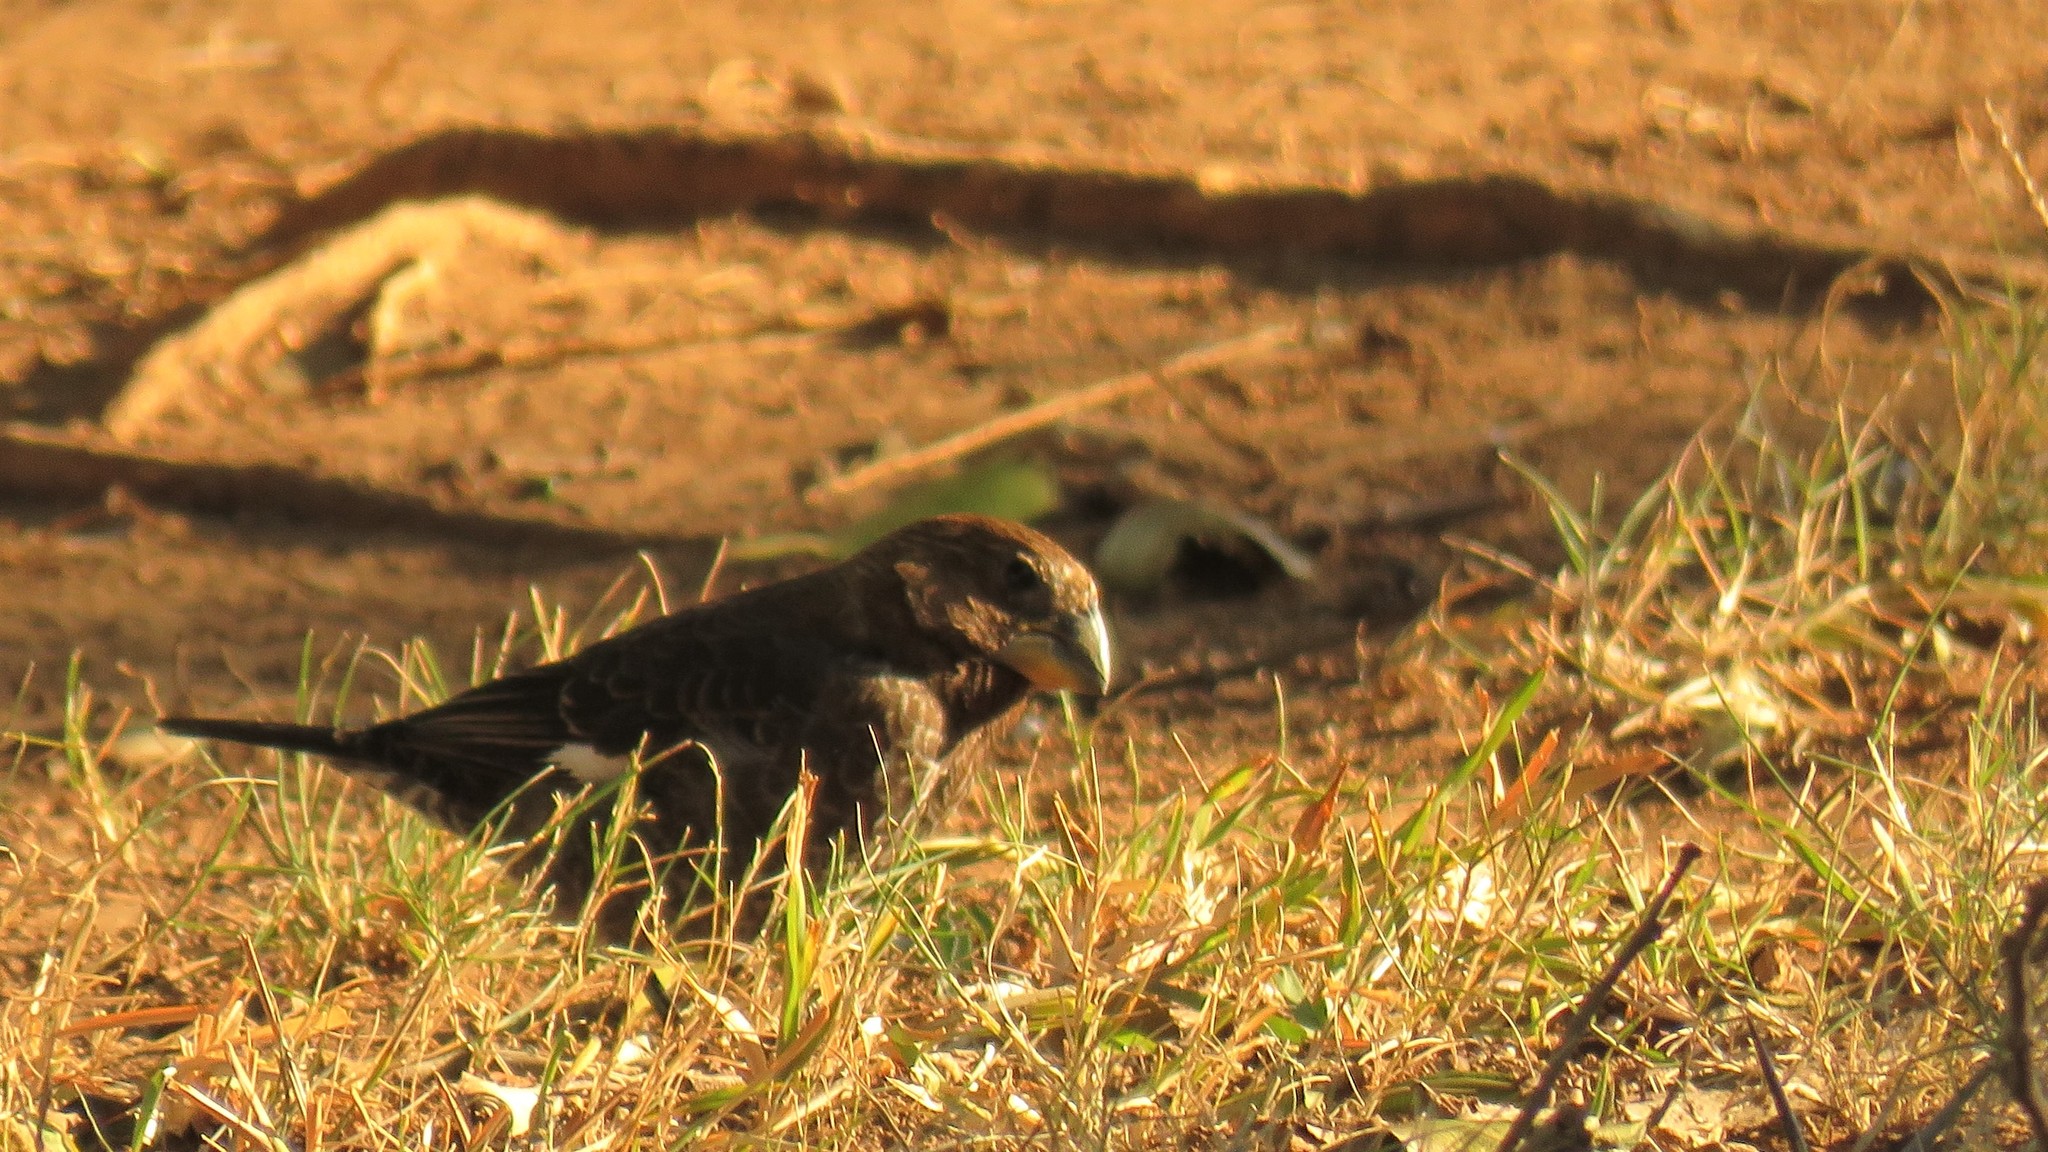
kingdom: Animalia
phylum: Chordata
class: Aves
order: Passeriformes
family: Ploceidae
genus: Amblyospiza
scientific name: Amblyospiza albifrons
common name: Thick-billed weaver
